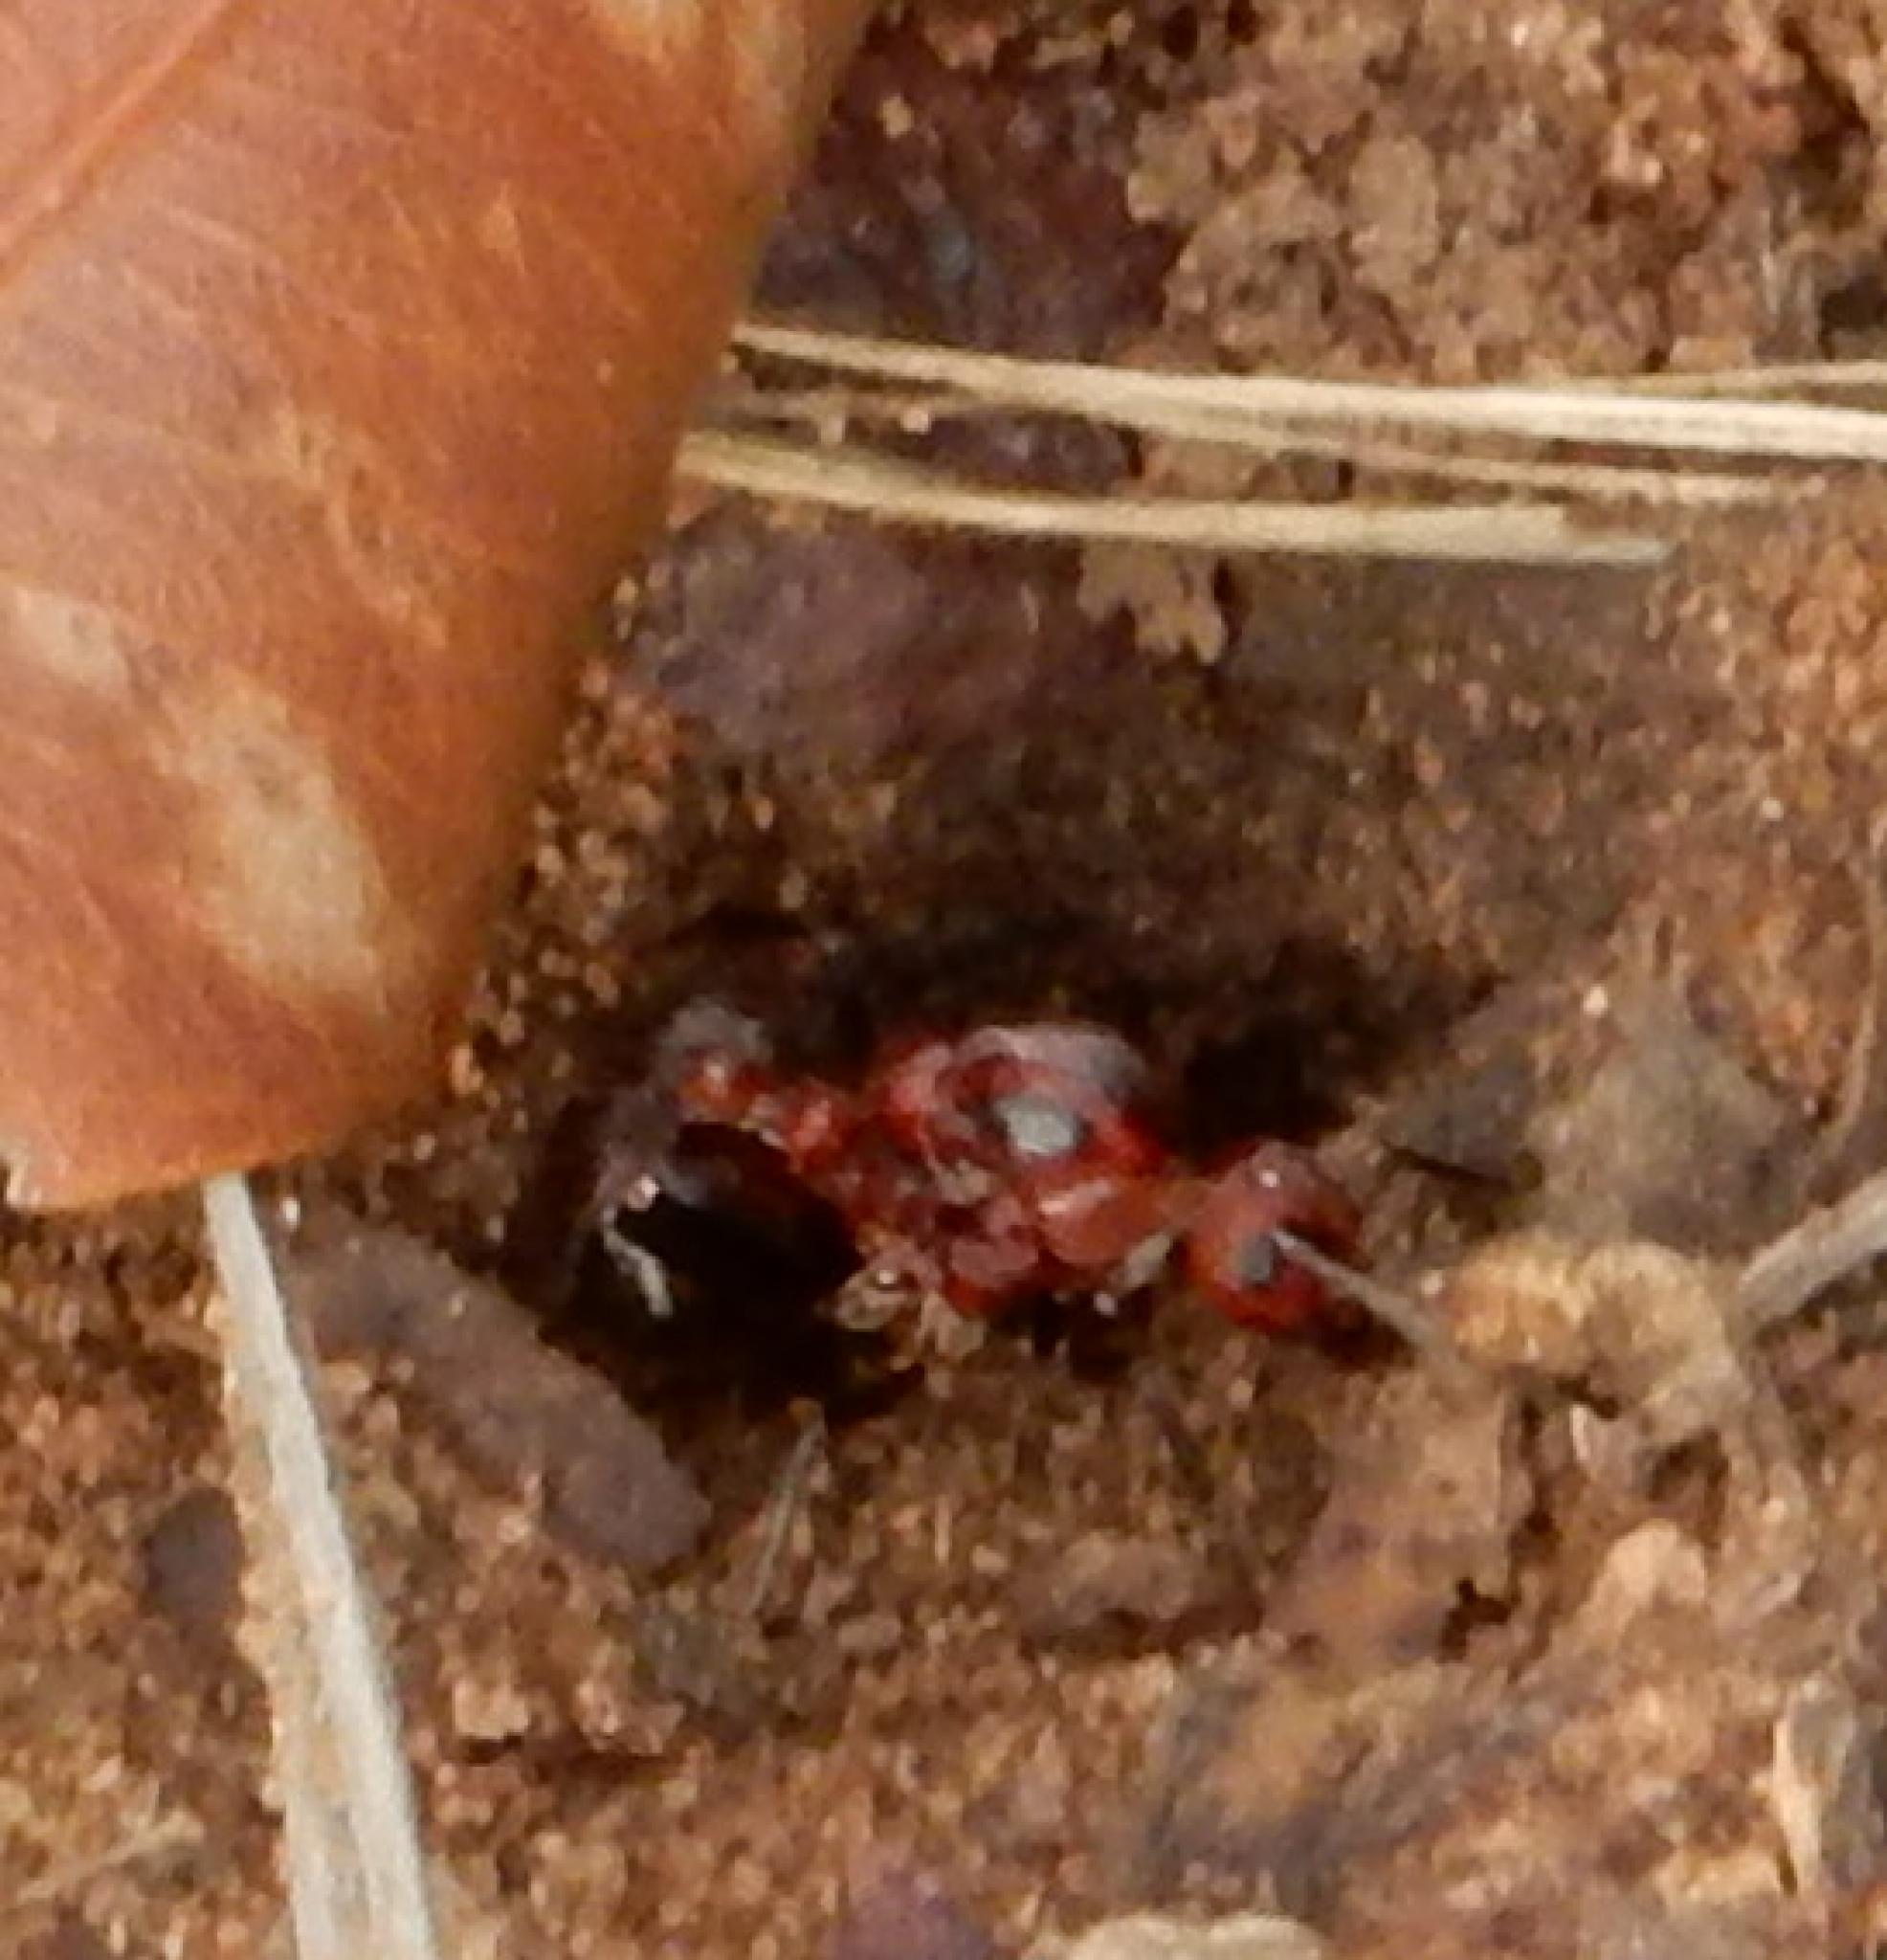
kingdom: Animalia
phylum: Arthropoda
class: Insecta
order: Hymenoptera
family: Formicidae
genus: Myrmicaria
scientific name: Myrmicaria natalensis
